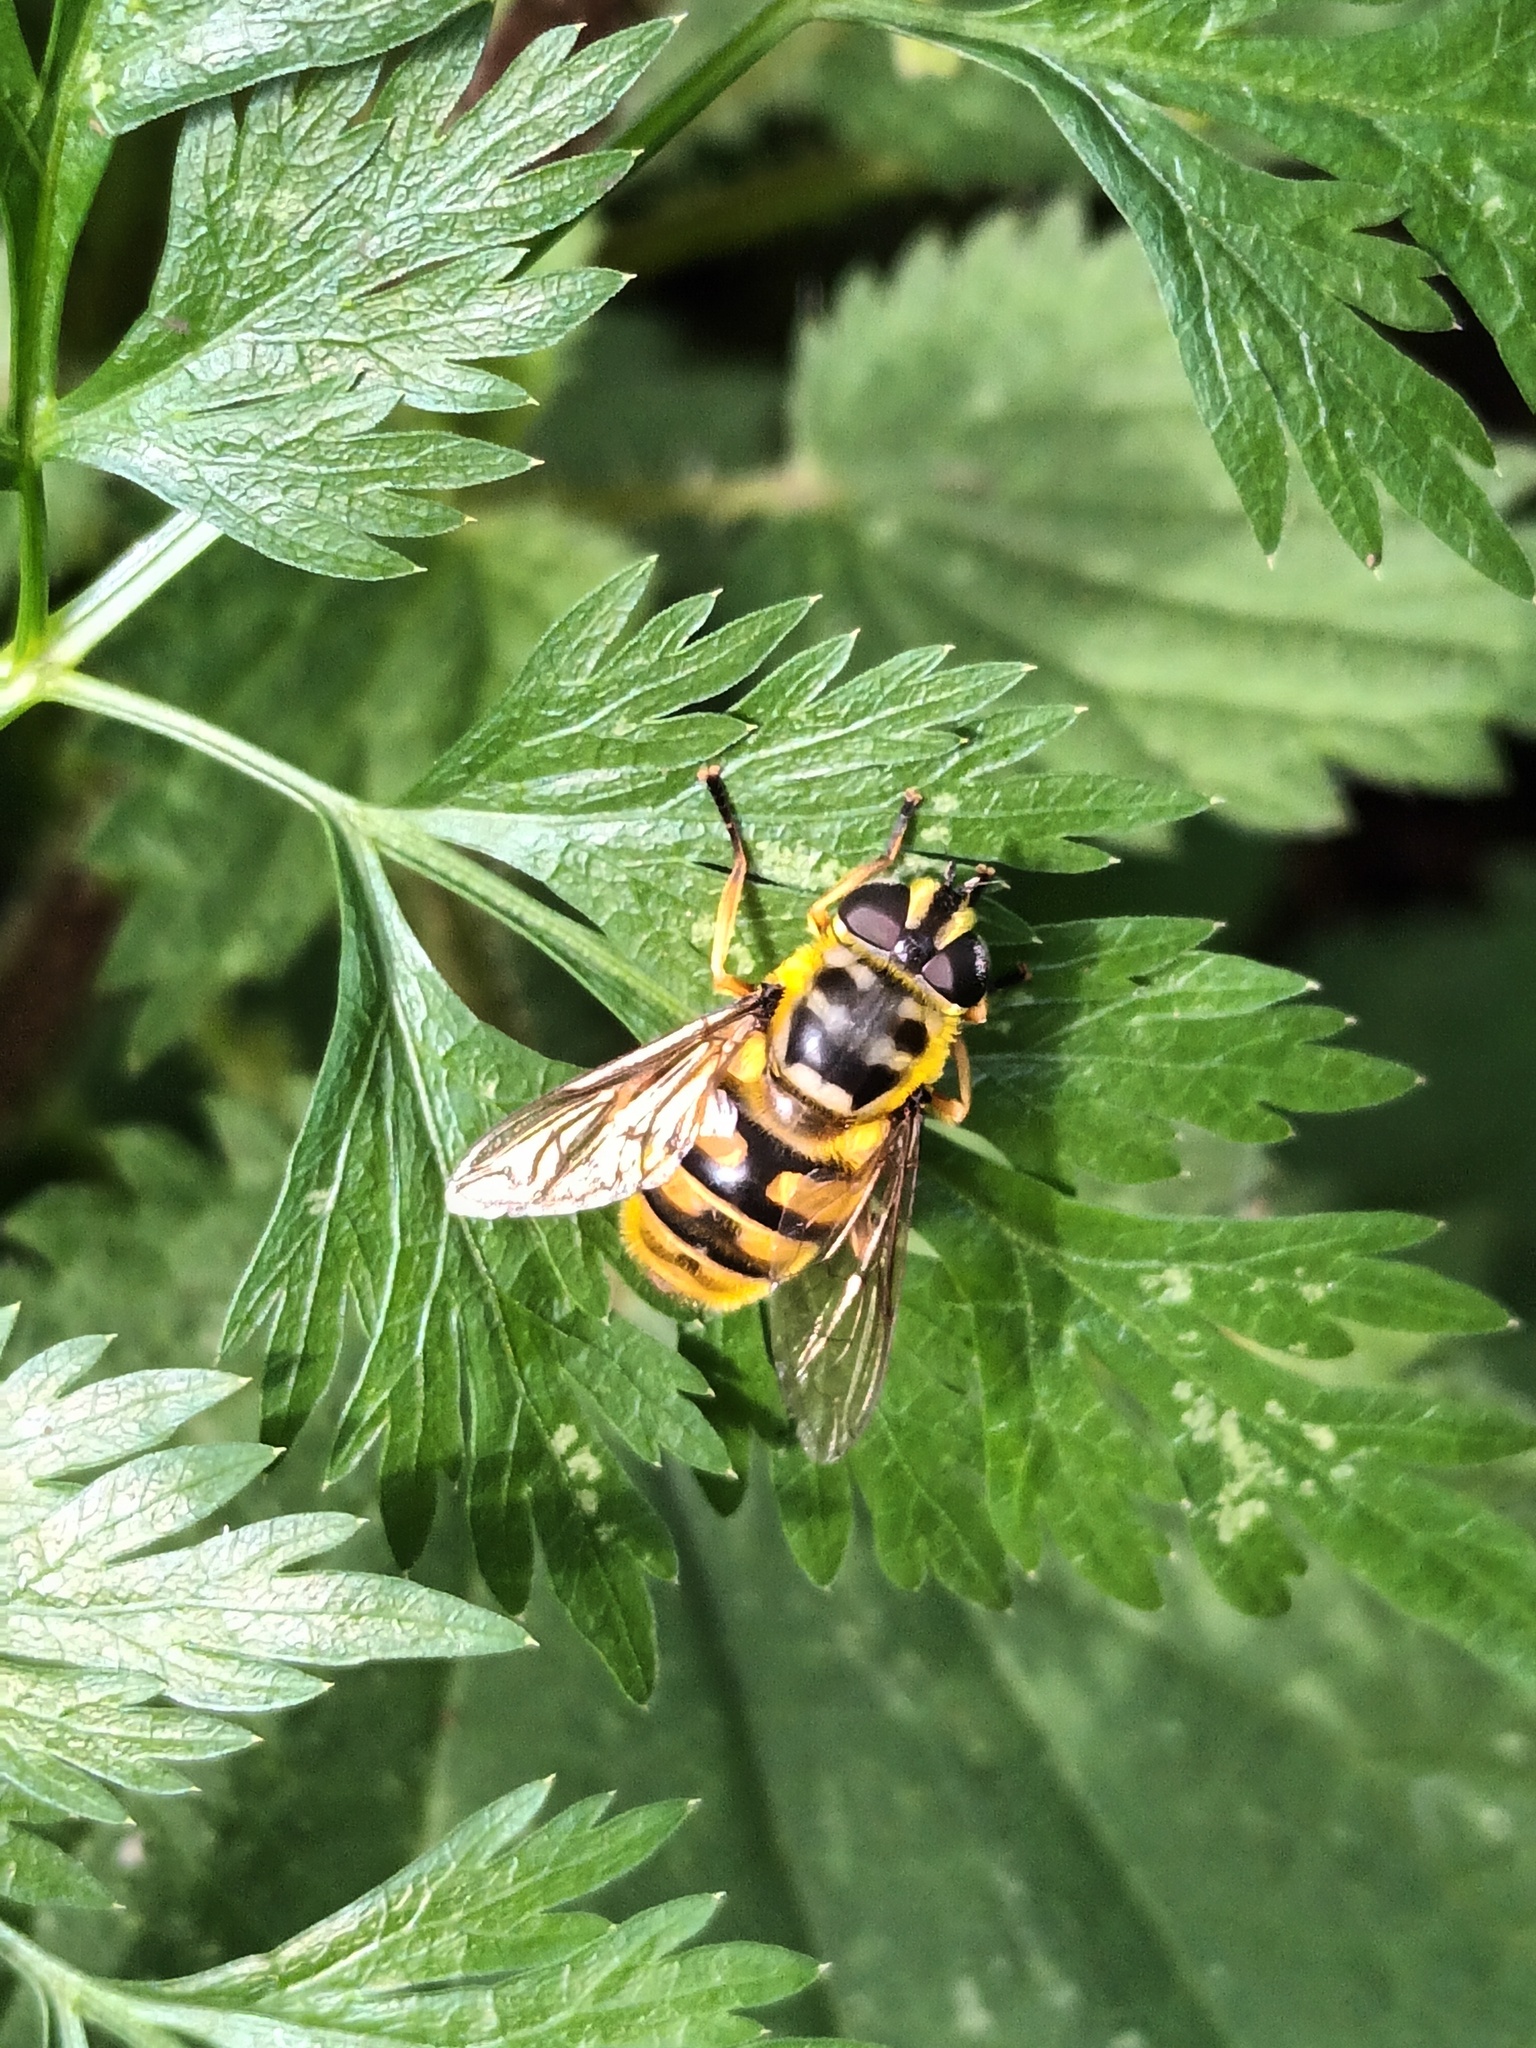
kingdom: Animalia
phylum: Arthropoda
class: Insecta
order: Diptera
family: Syrphidae
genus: Myathropa
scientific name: Myathropa florea
